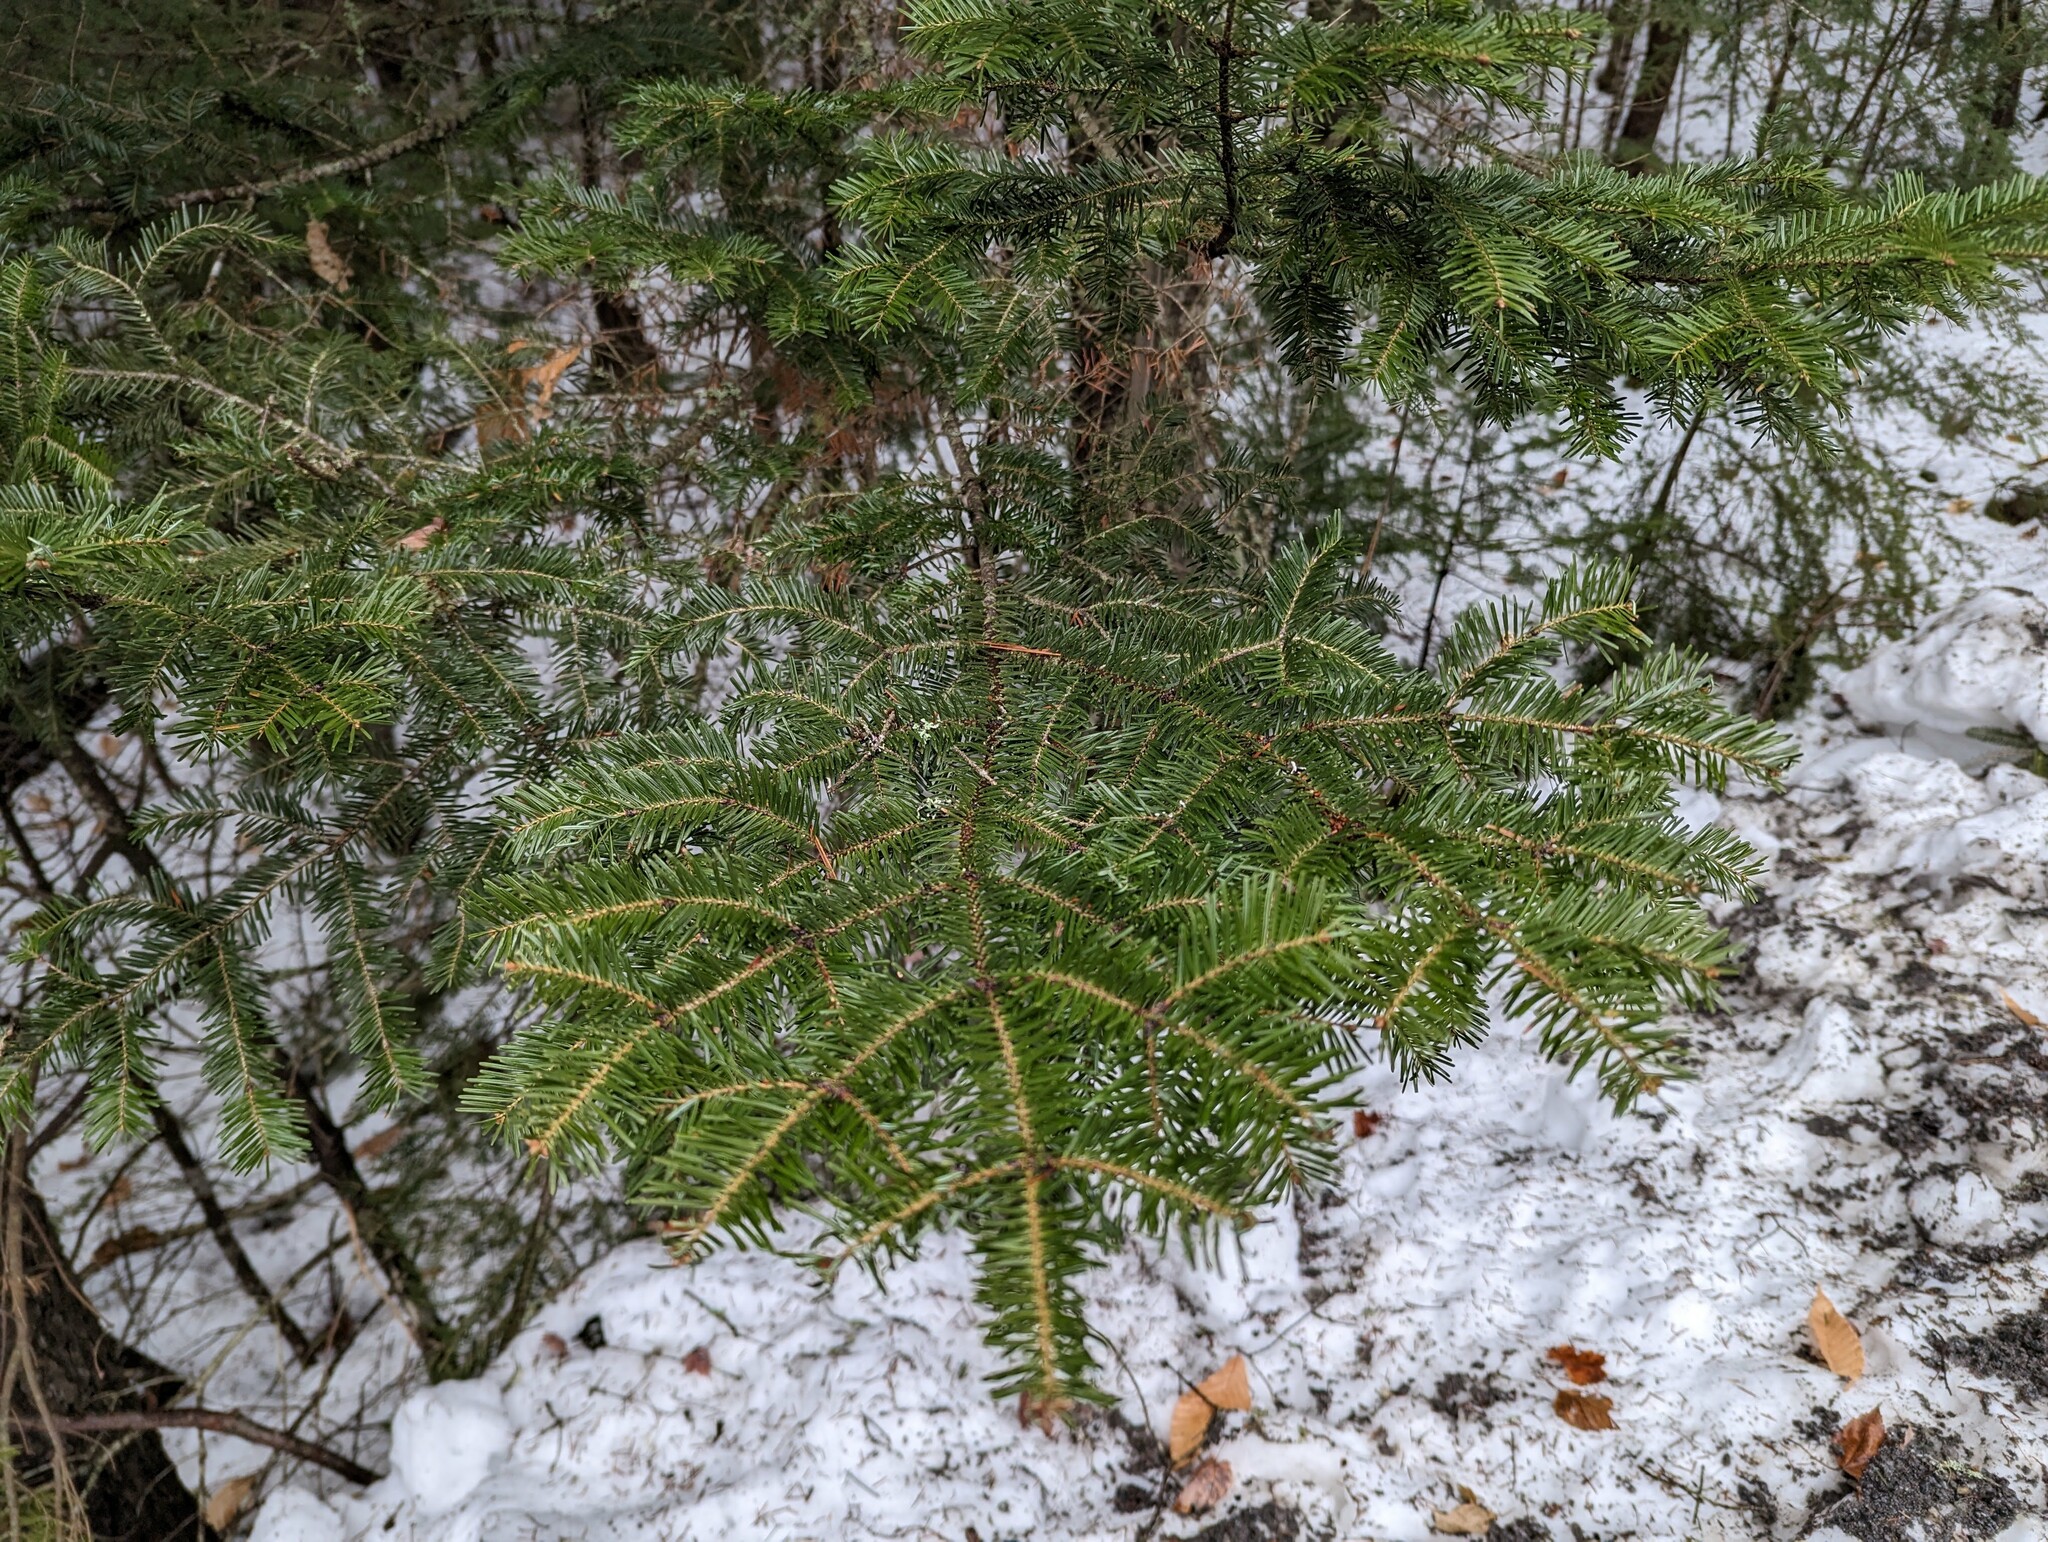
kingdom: Plantae
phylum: Tracheophyta
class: Pinopsida
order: Pinales
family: Pinaceae
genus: Abies
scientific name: Abies balsamea
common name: Balsam fir
